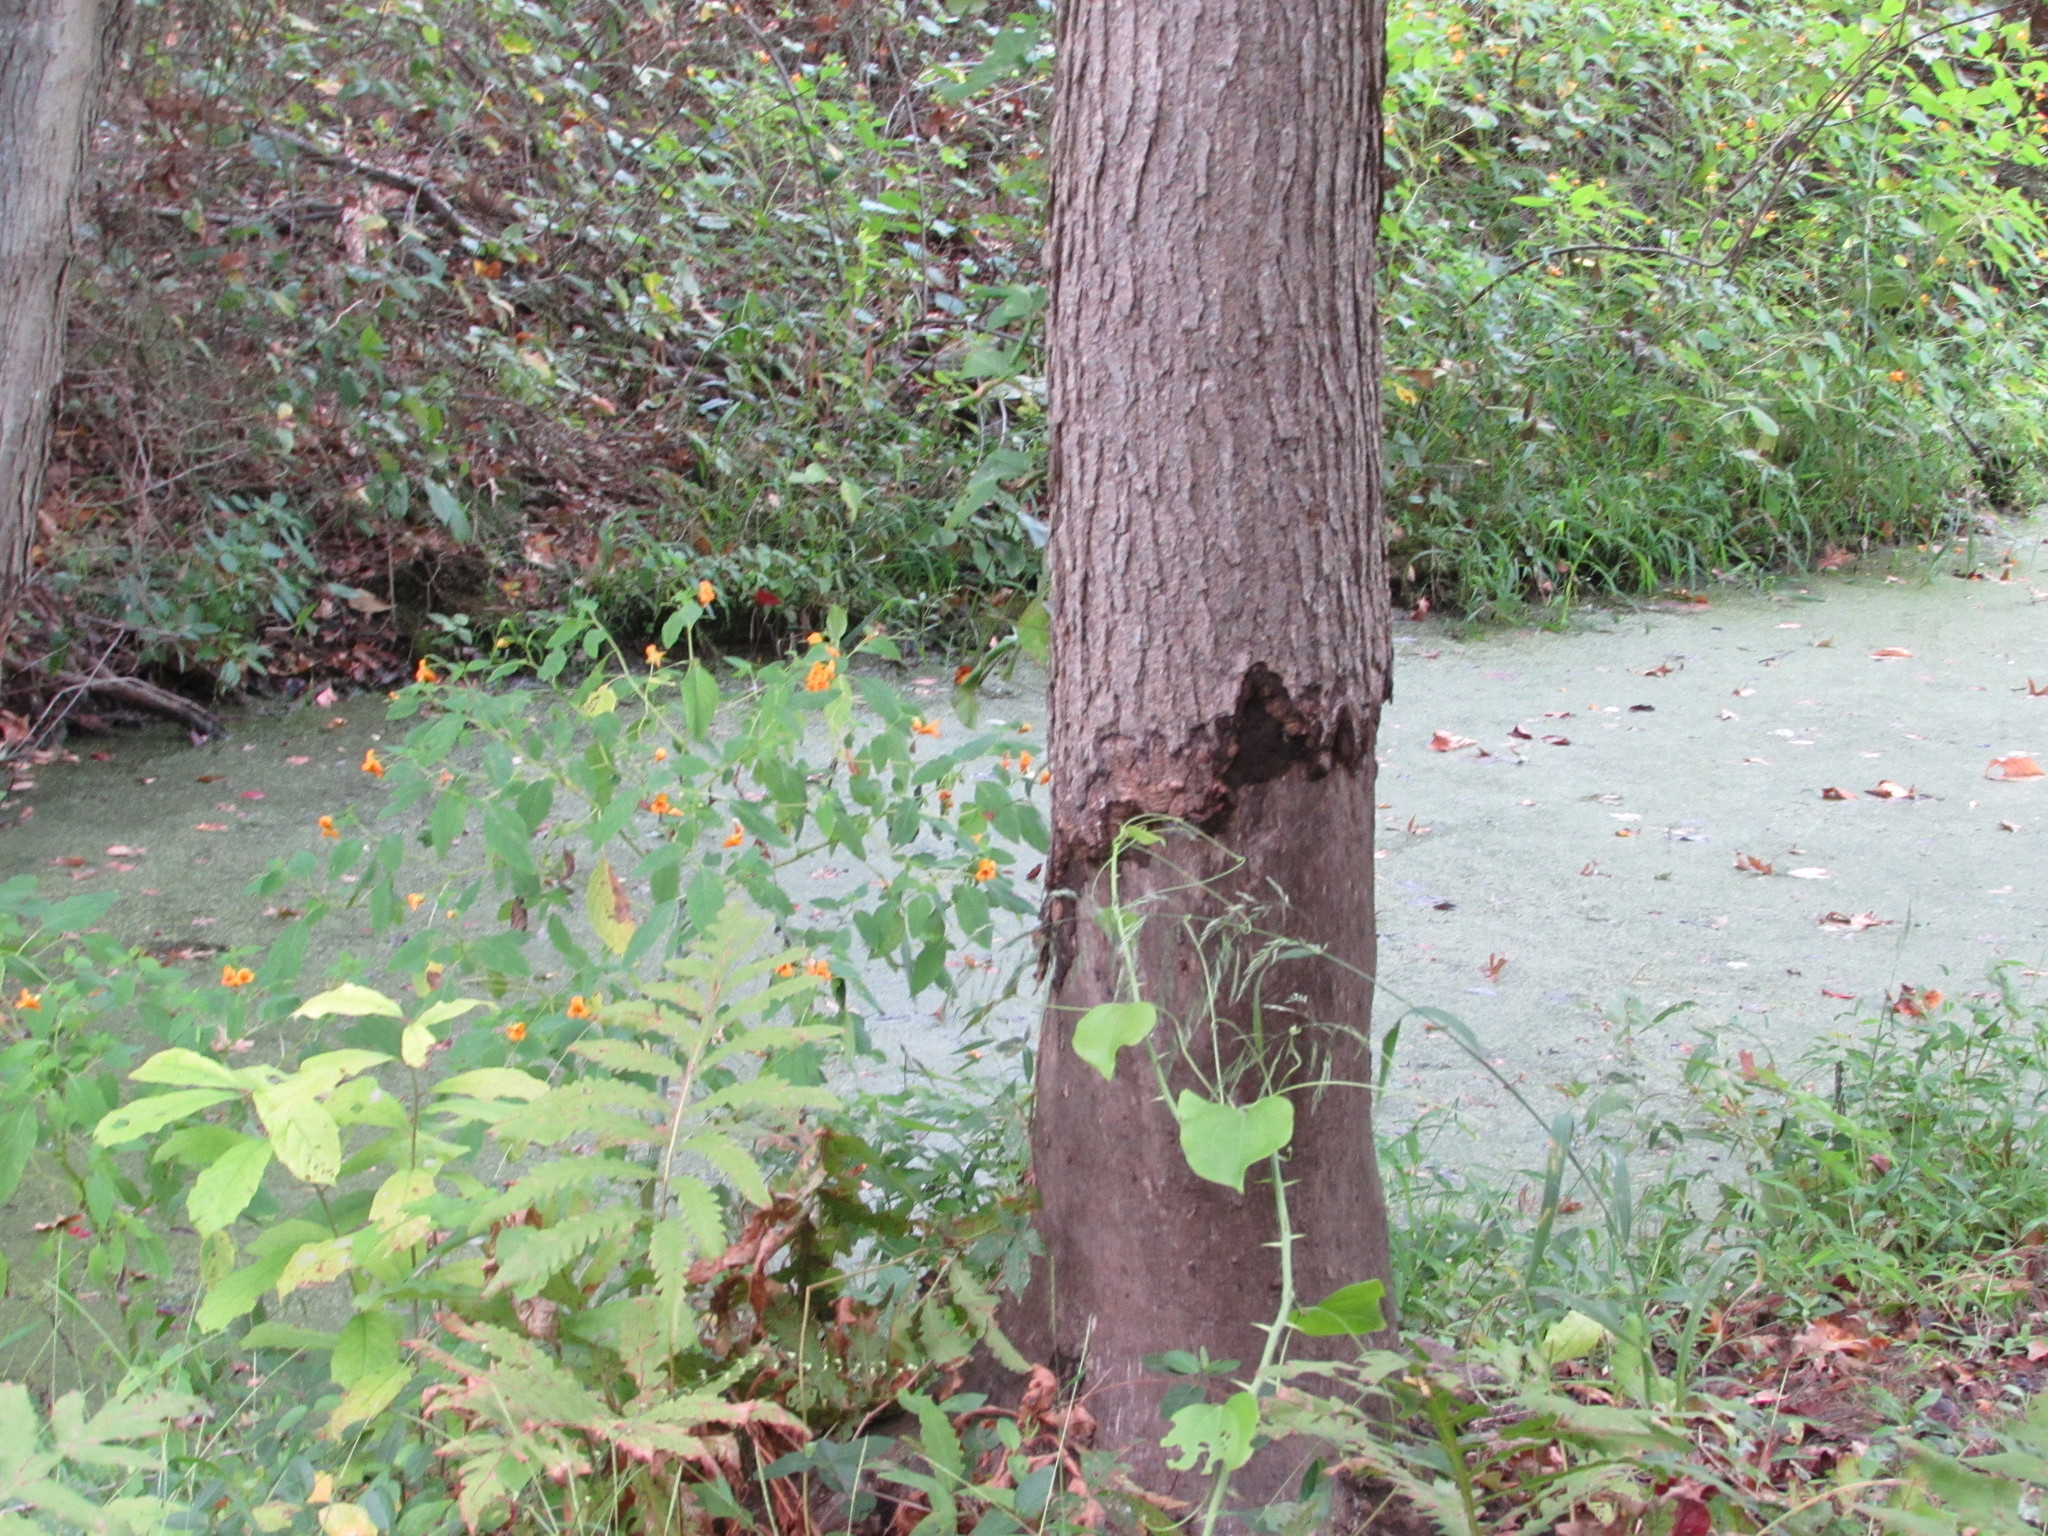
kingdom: Animalia
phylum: Chordata
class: Mammalia
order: Rodentia
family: Castoridae
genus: Castor
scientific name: Castor canadensis
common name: American beaver
